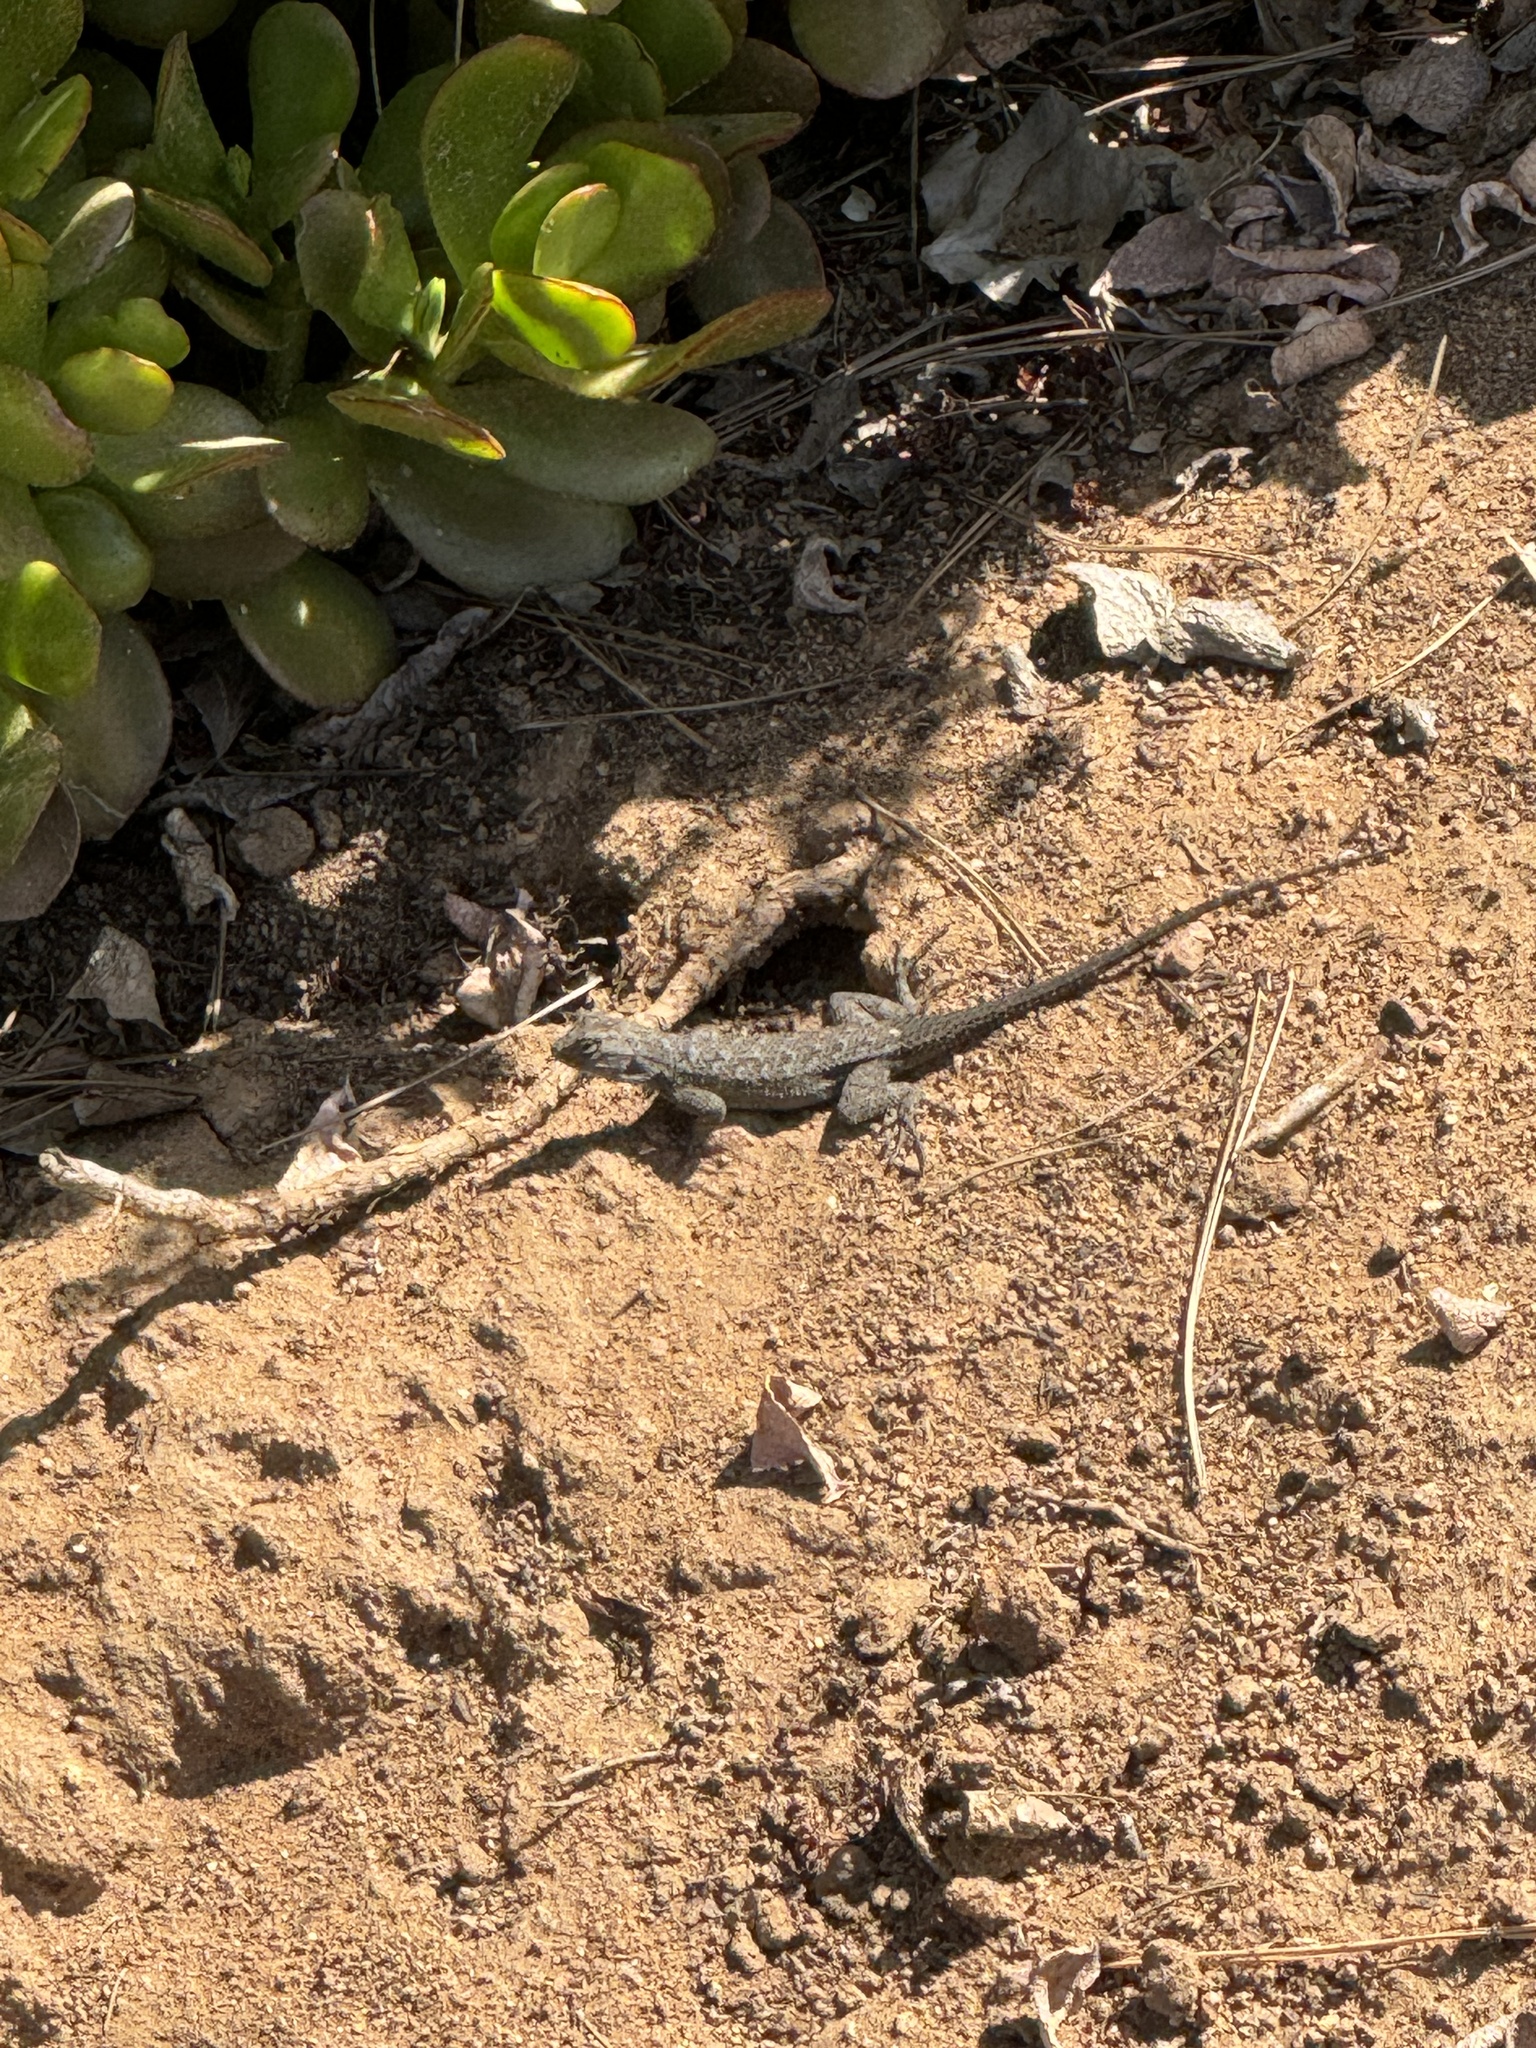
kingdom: Animalia
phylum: Chordata
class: Squamata
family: Phrynosomatidae
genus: Sceloporus
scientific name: Sceloporus occidentalis
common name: Western fence lizard
